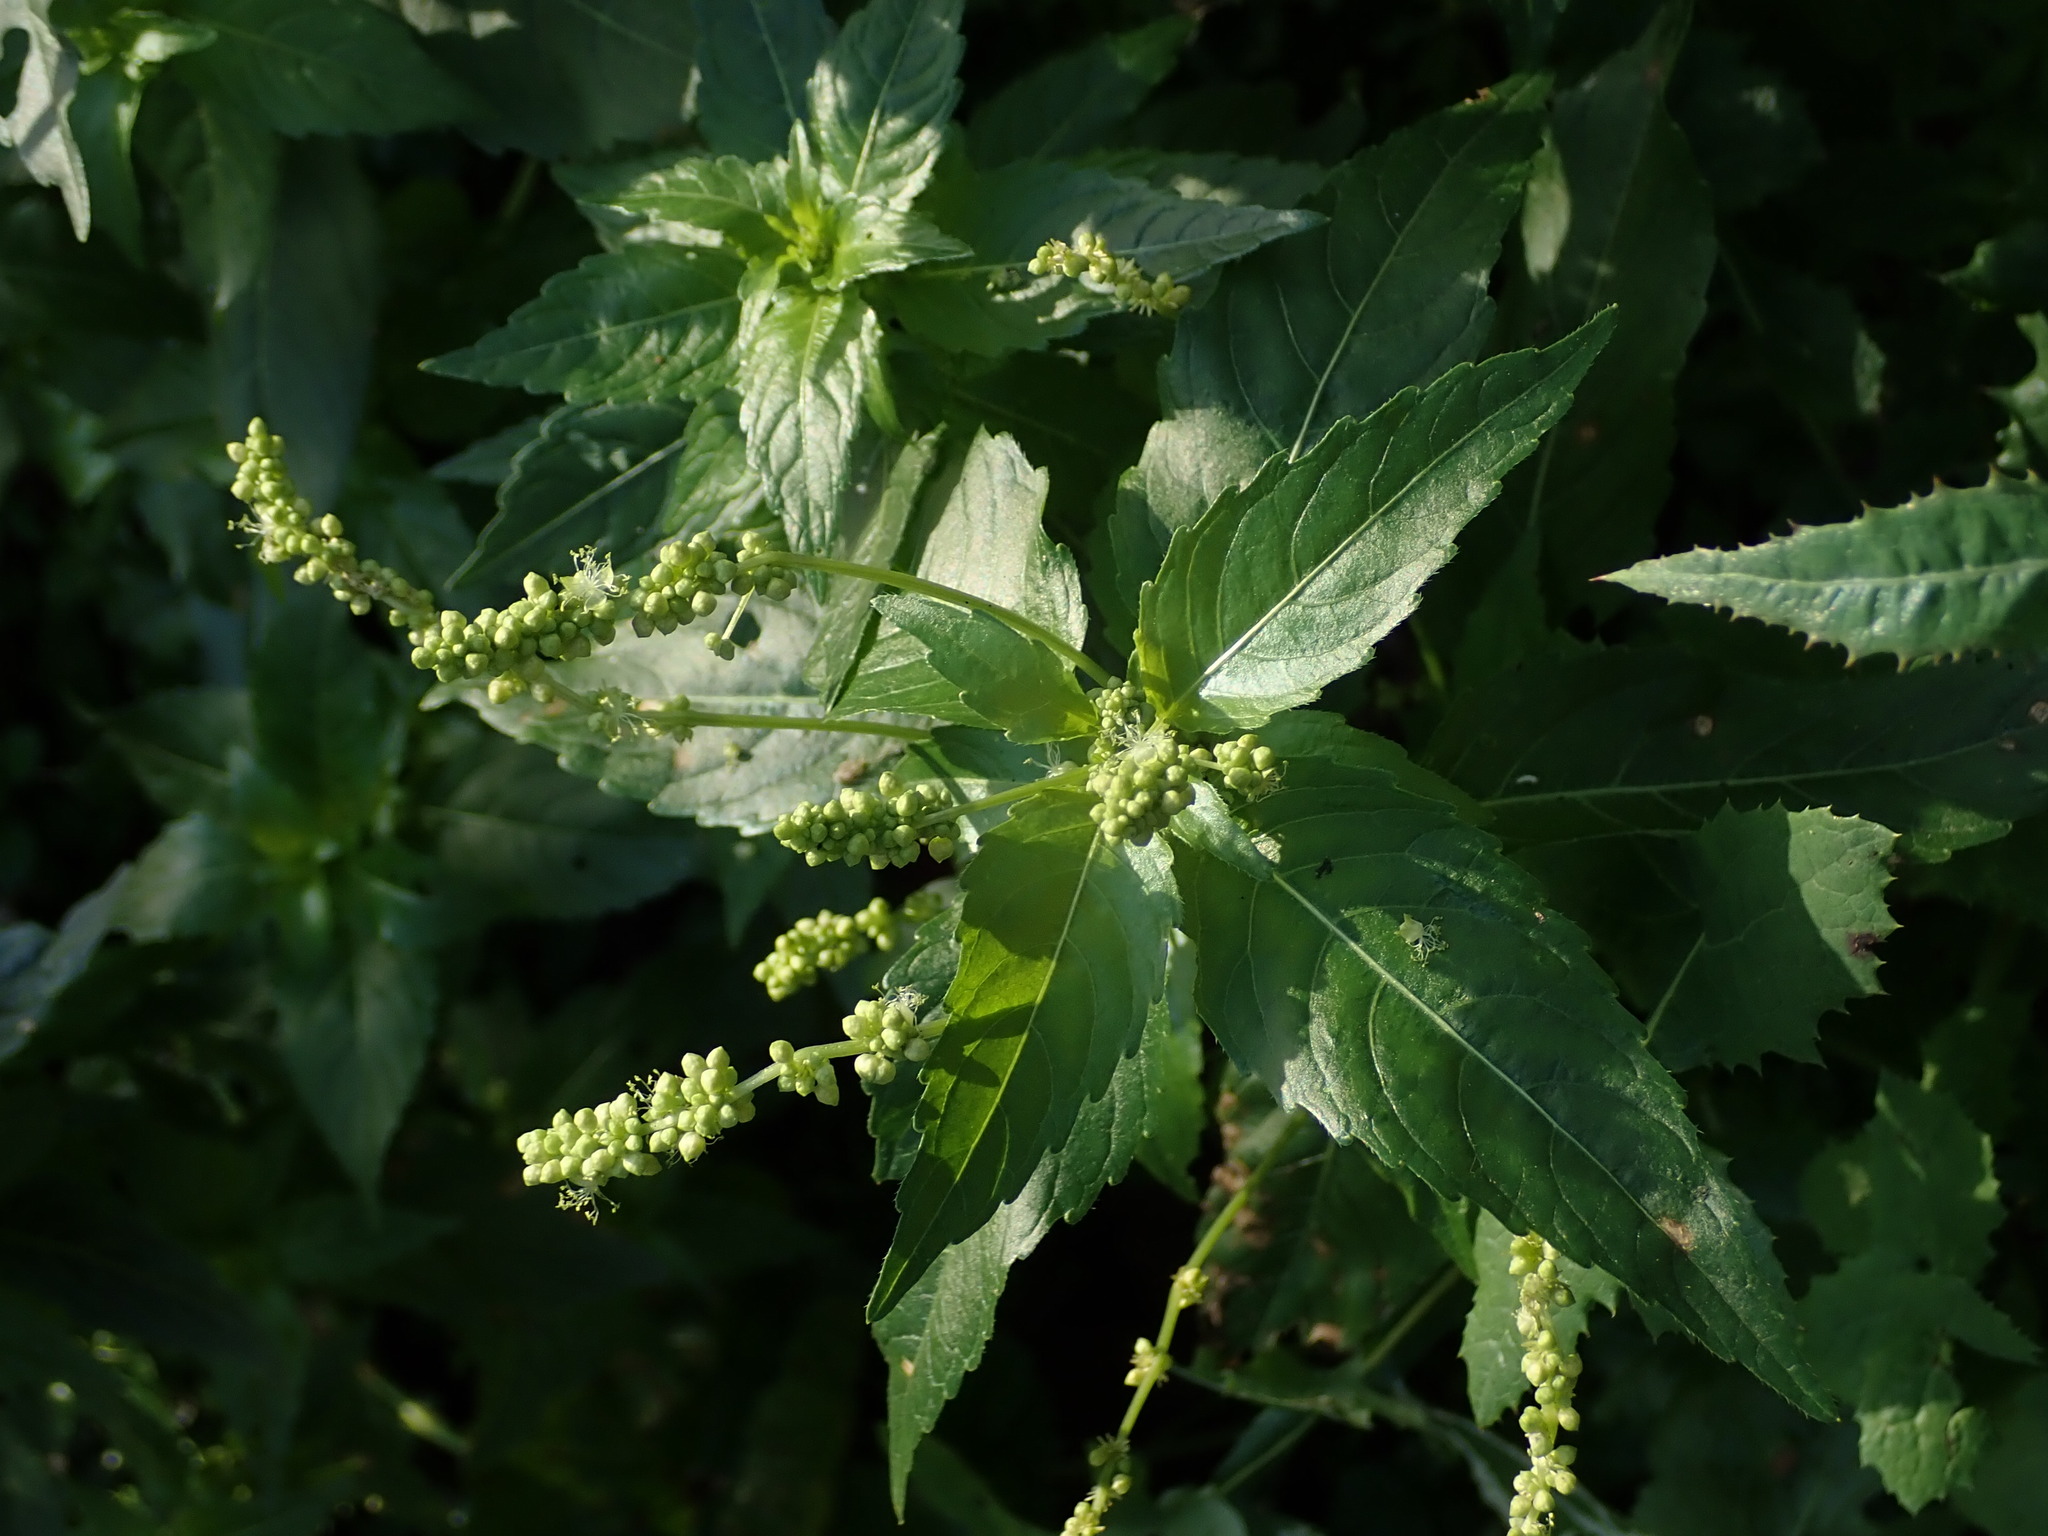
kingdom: Plantae
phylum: Tracheophyta
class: Magnoliopsida
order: Malpighiales
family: Euphorbiaceae
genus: Mercurialis
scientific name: Mercurialis annua
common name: Annual mercury
